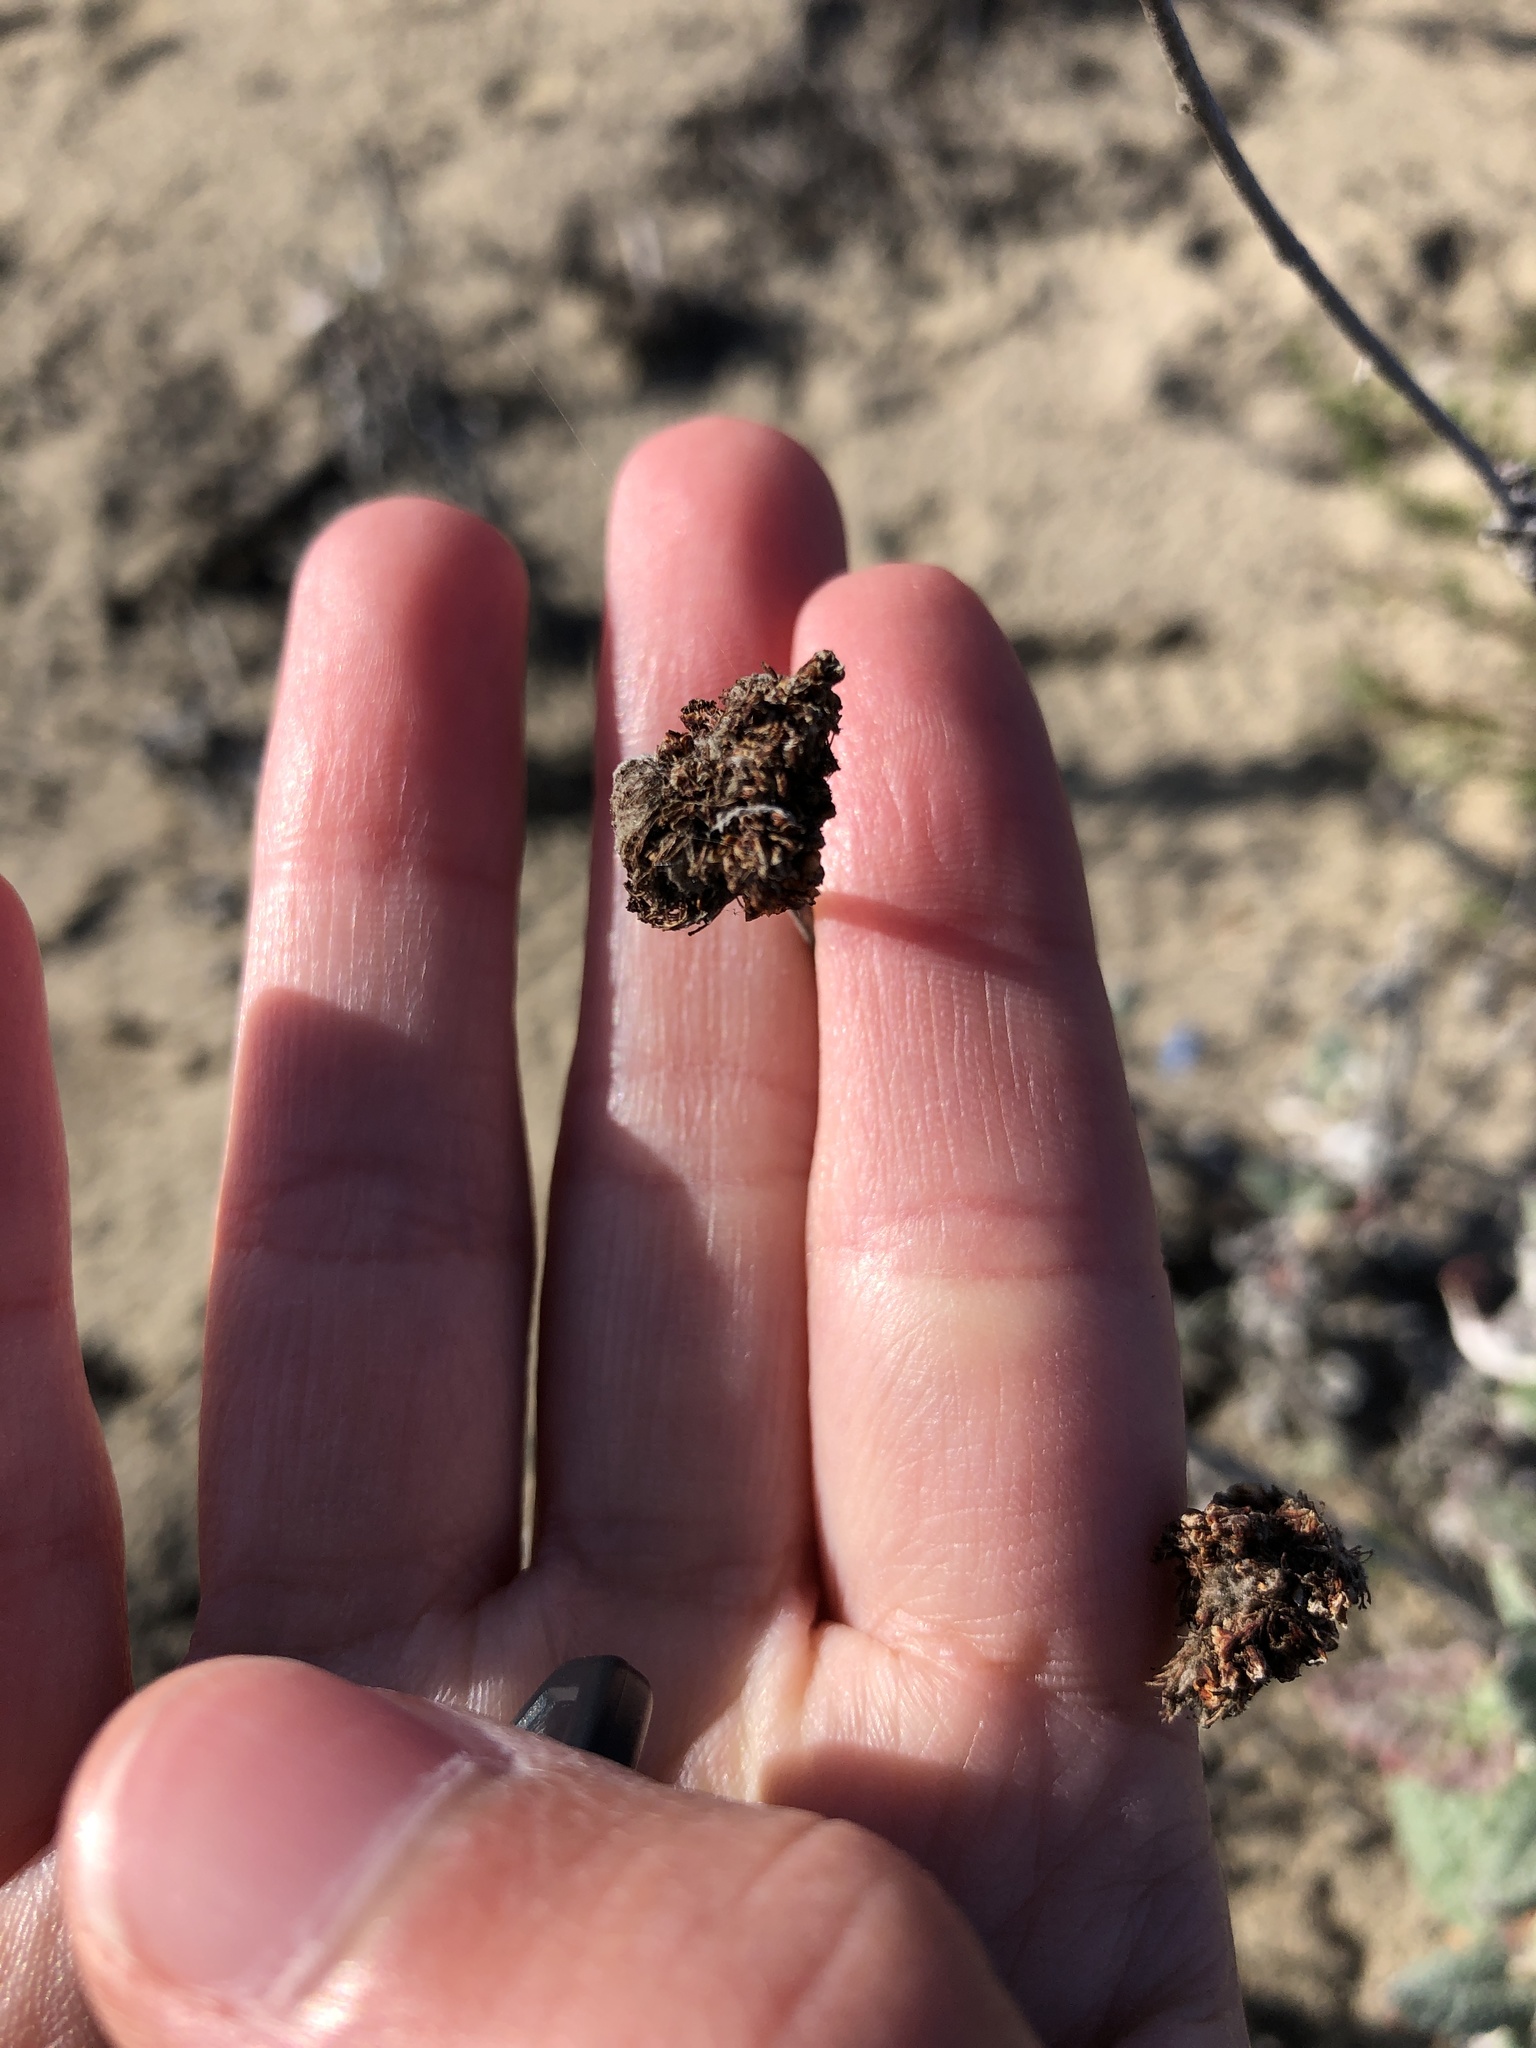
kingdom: Plantae
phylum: Tracheophyta
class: Magnoliopsida
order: Caryophyllales
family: Polygonaceae
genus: Eriogonum
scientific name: Eriogonum latifolium
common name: Seaside wild buckwheat
